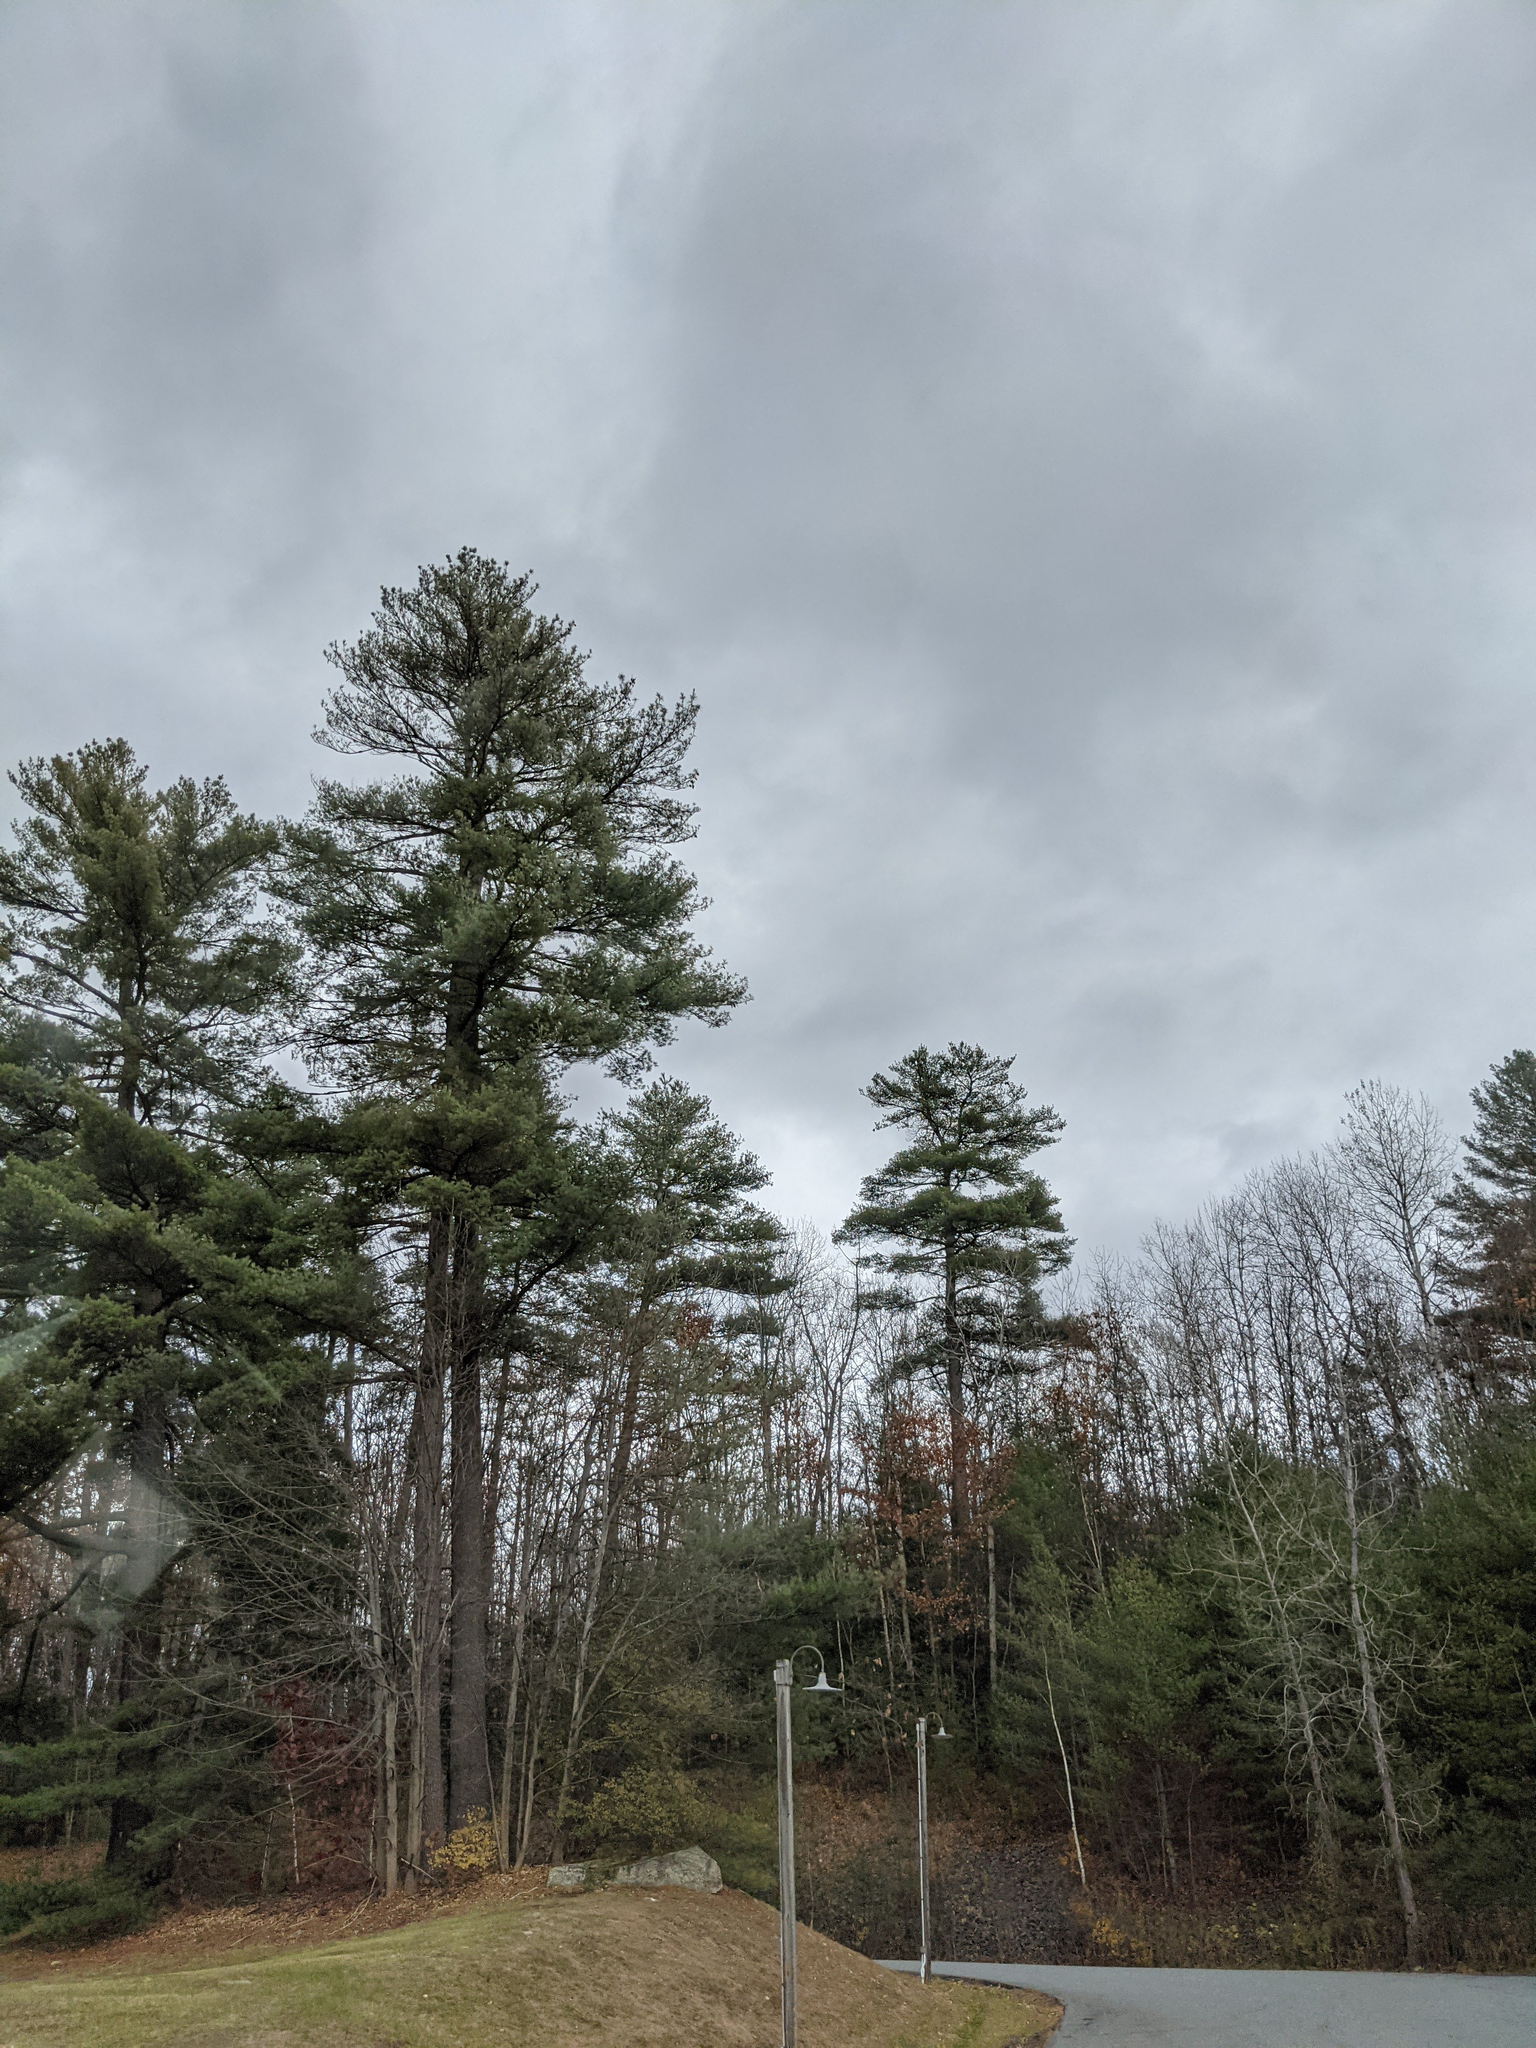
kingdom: Plantae
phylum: Tracheophyta
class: Pinopsida
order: Pinales
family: Pinaceae
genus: Pinus
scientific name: Pinus strobus
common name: Weymouth pine
